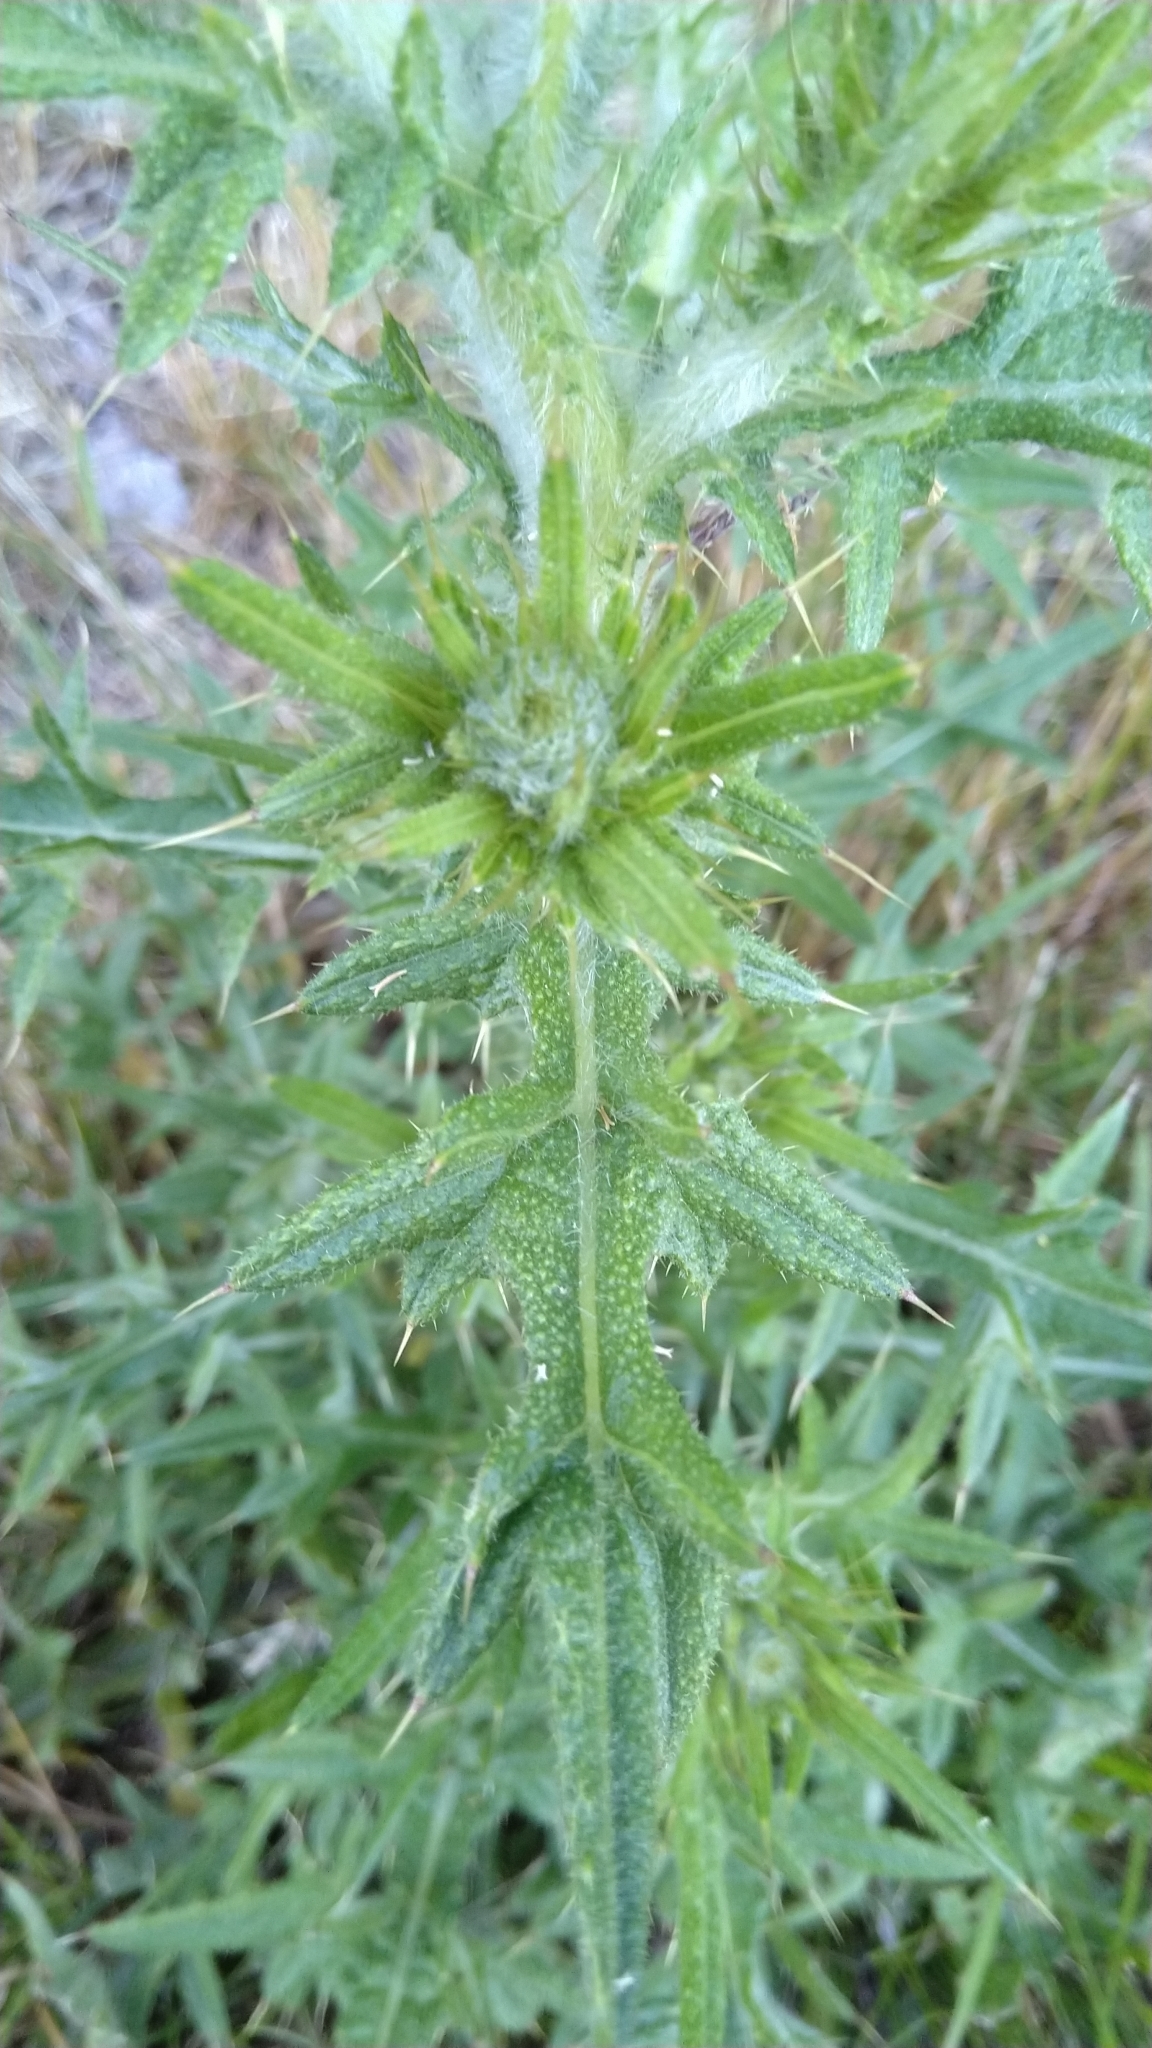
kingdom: Plantae
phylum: Tracheophyta
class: Magnoliopsida
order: Asterales
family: Asteraceae
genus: Cirsium
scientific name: Cirsium vulgare
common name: Bull thistle
